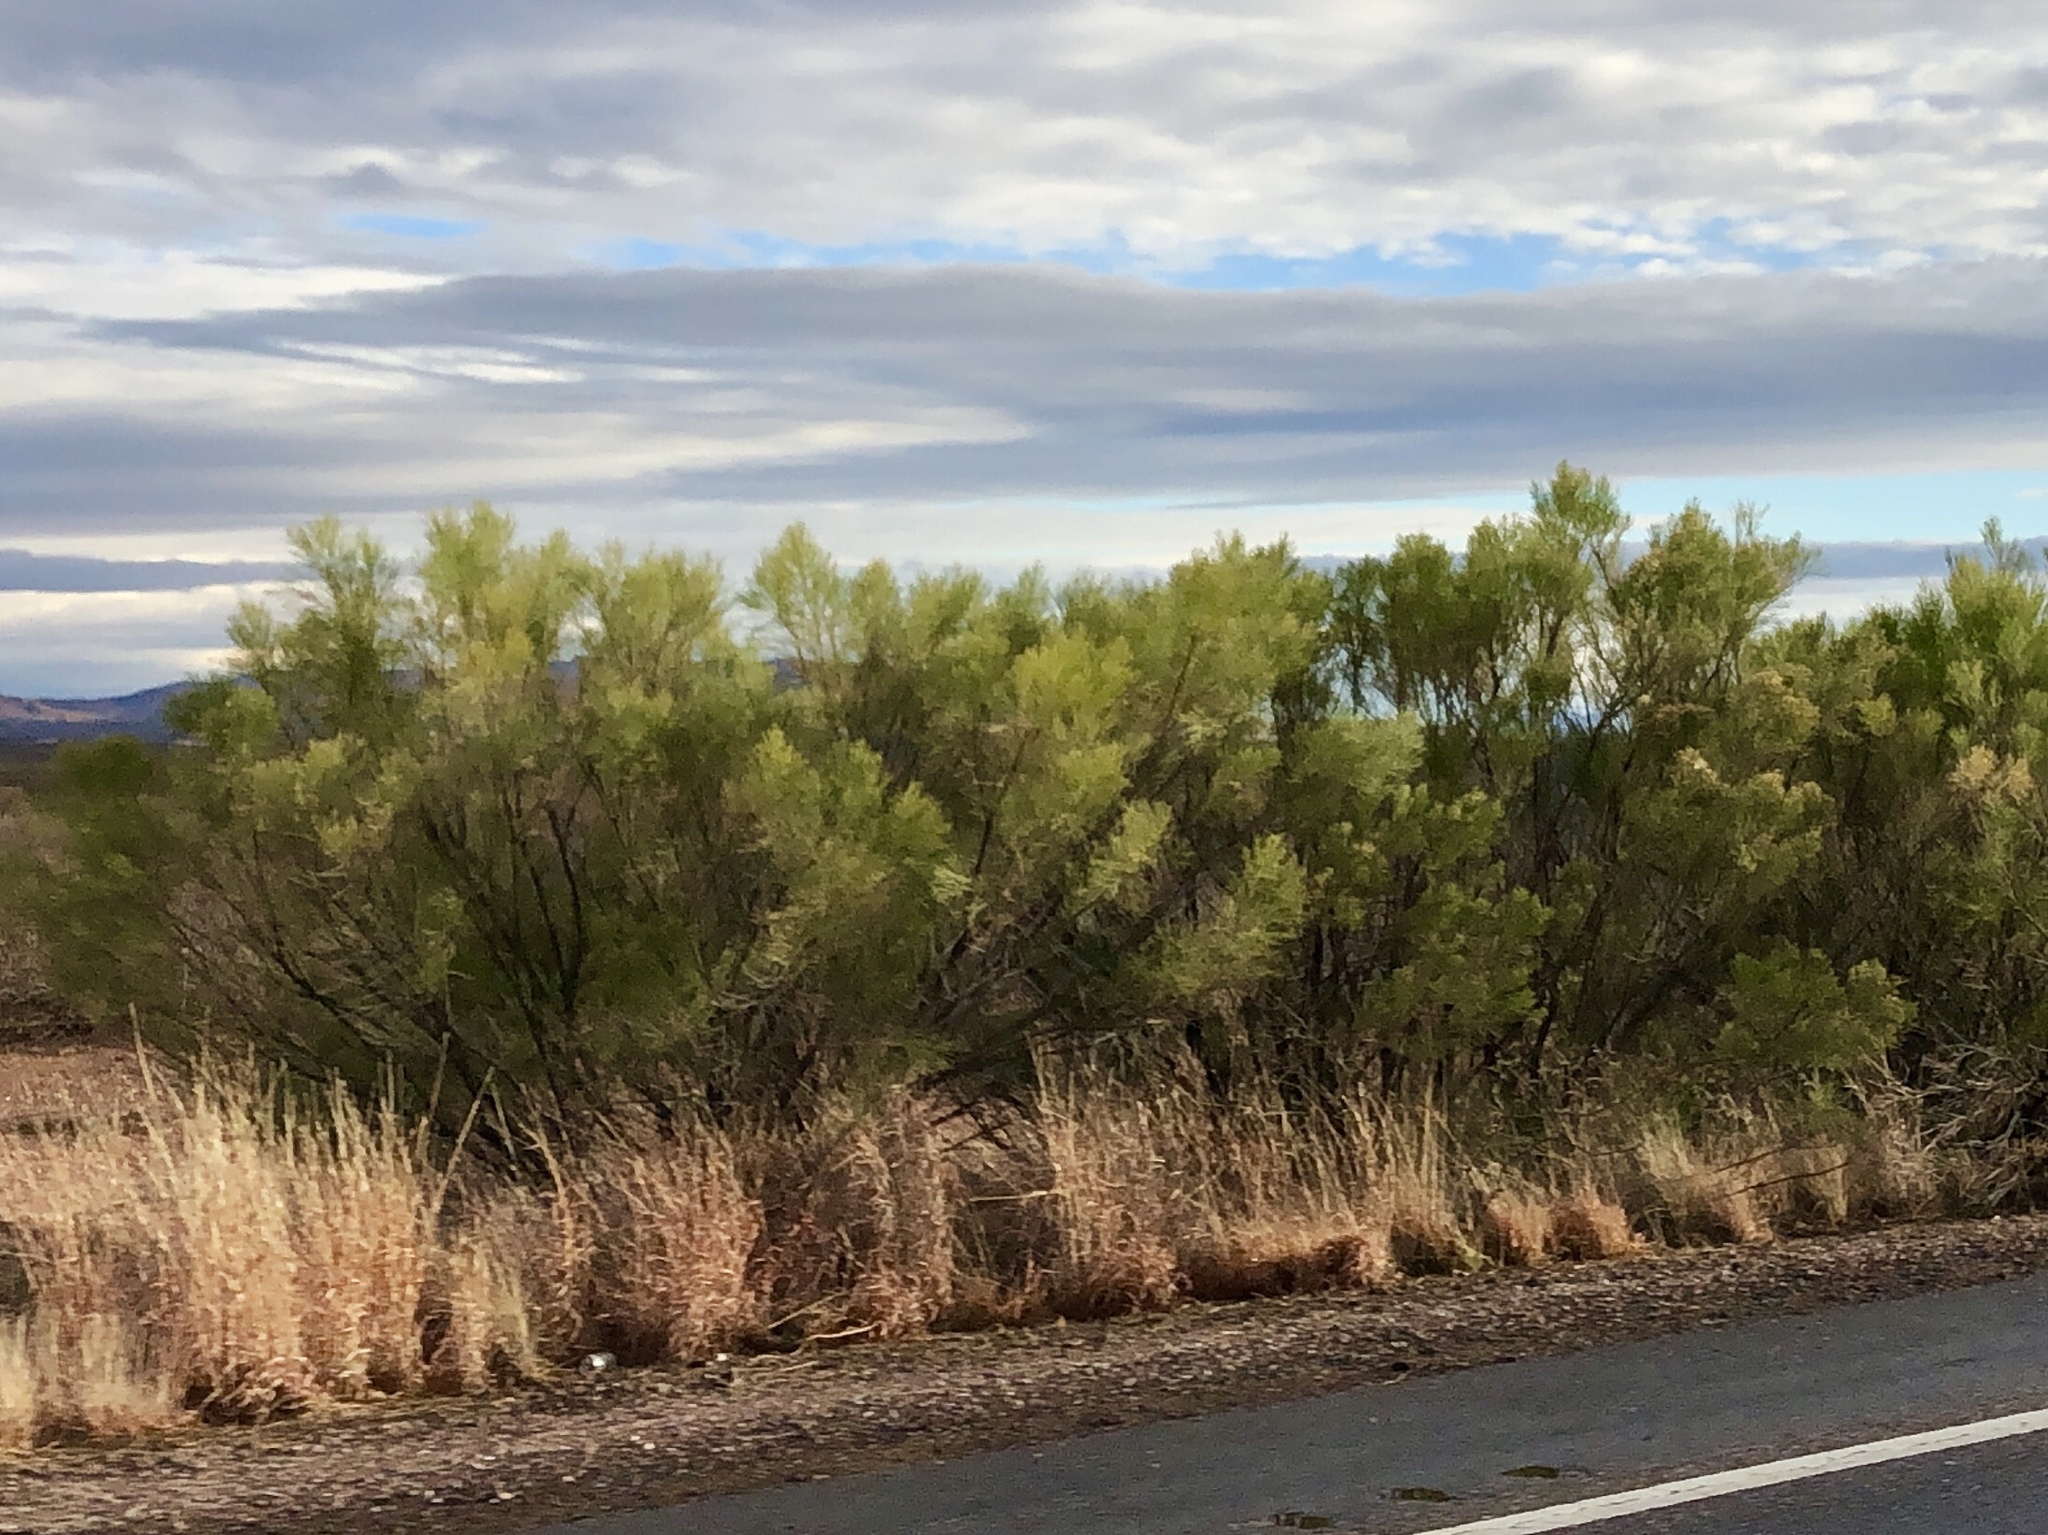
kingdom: Plantae
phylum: Tracheophyta
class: Magnoliopsida
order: Asterales
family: Asteraceae
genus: Baccharis
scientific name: Baccharis sarothroides
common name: Desert-broom
